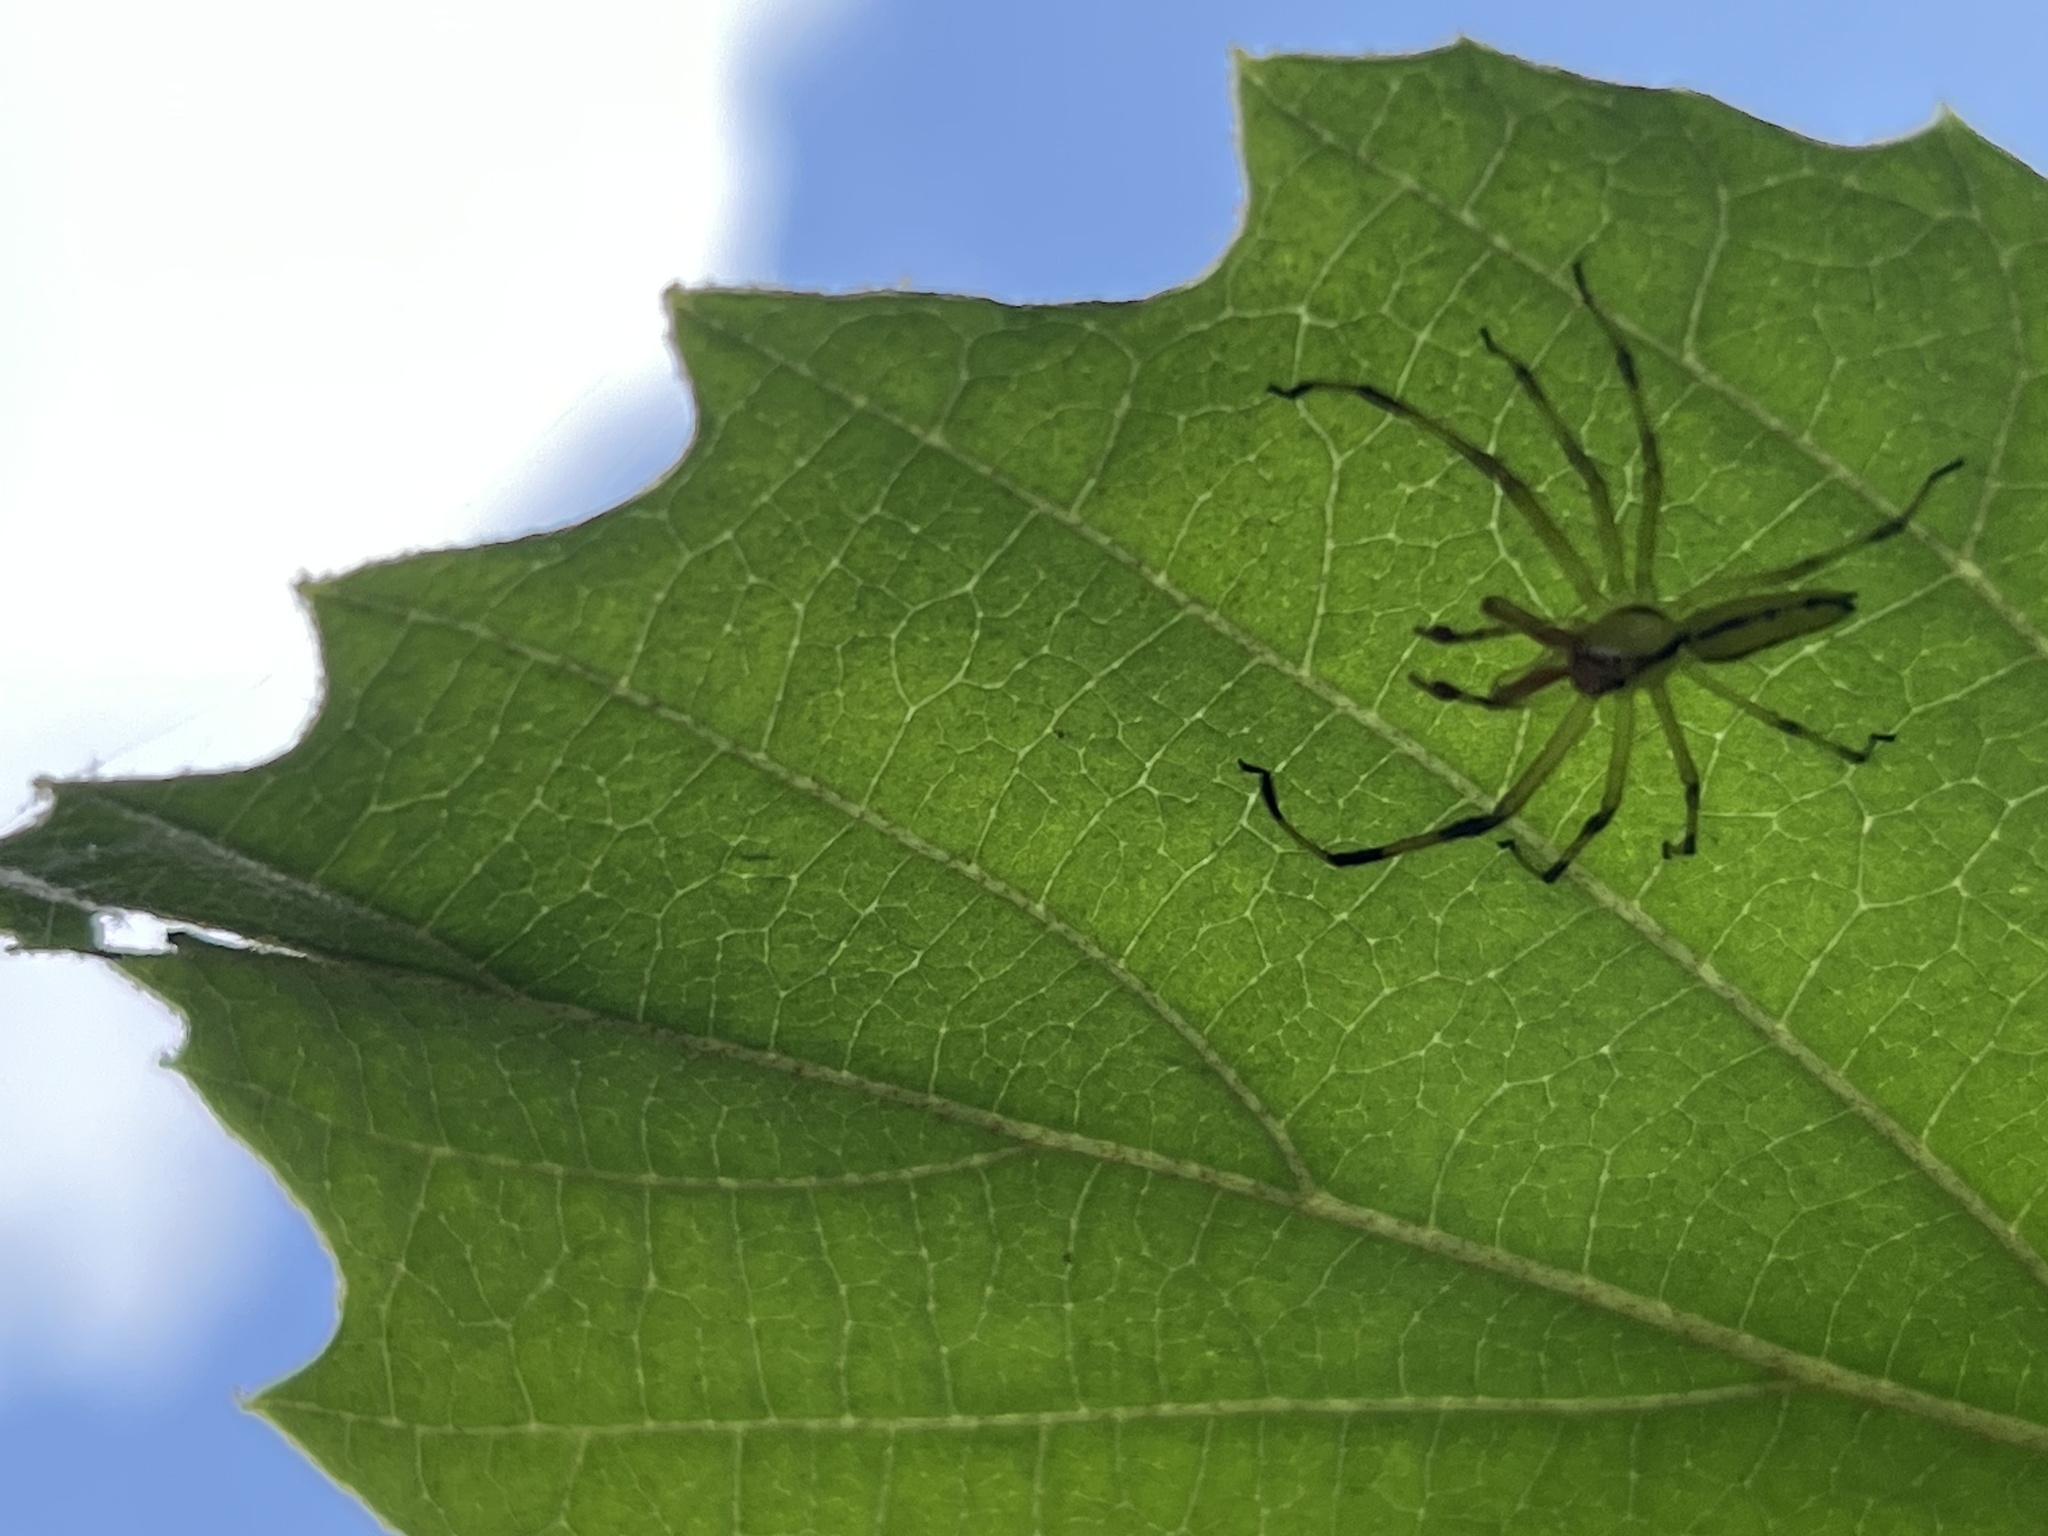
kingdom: Animalia
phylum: Arthropoda
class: Arachnida
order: Araneae
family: Salticidae
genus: Lyssomanes
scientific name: Lyssomanes viridis
